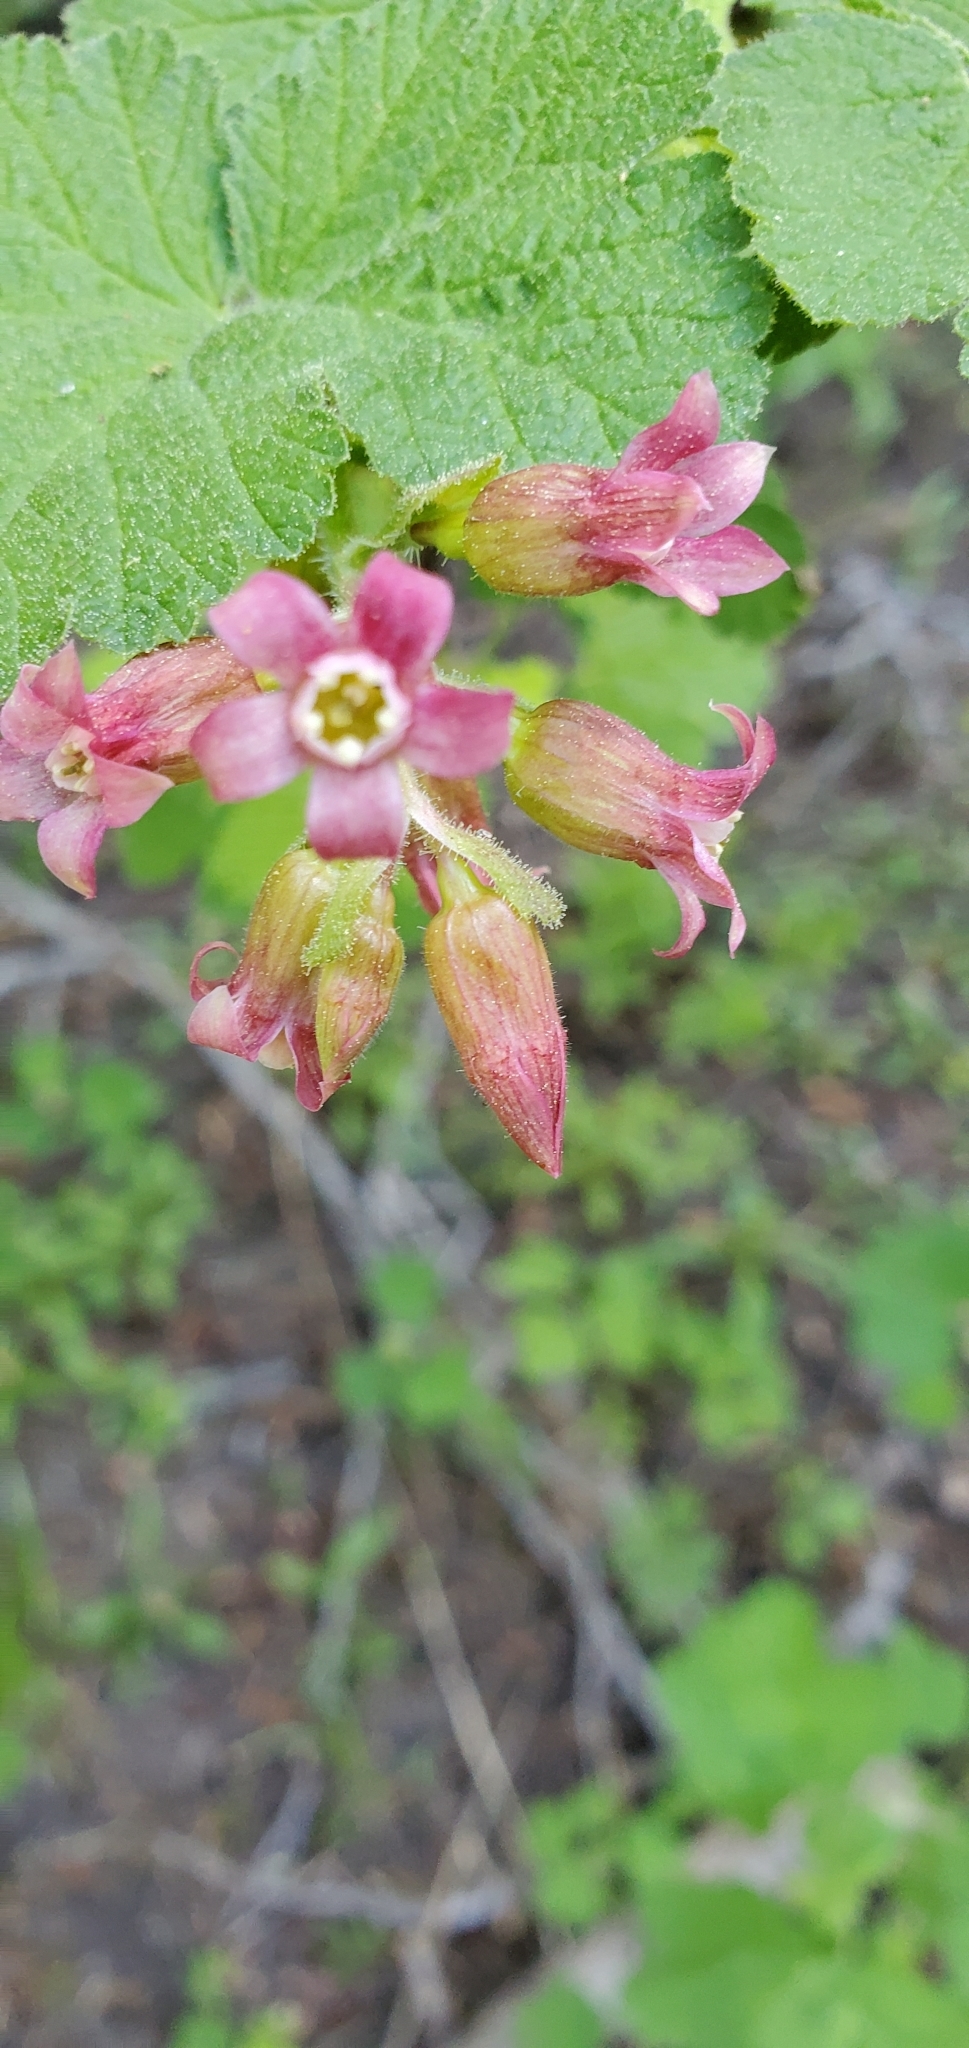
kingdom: Plantae
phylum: Tracheophyta
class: Magnoliopsida
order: Saxifragales
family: Grossulariaceae
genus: Ribes
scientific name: Ribes nevadense
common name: Mountain pink currant
